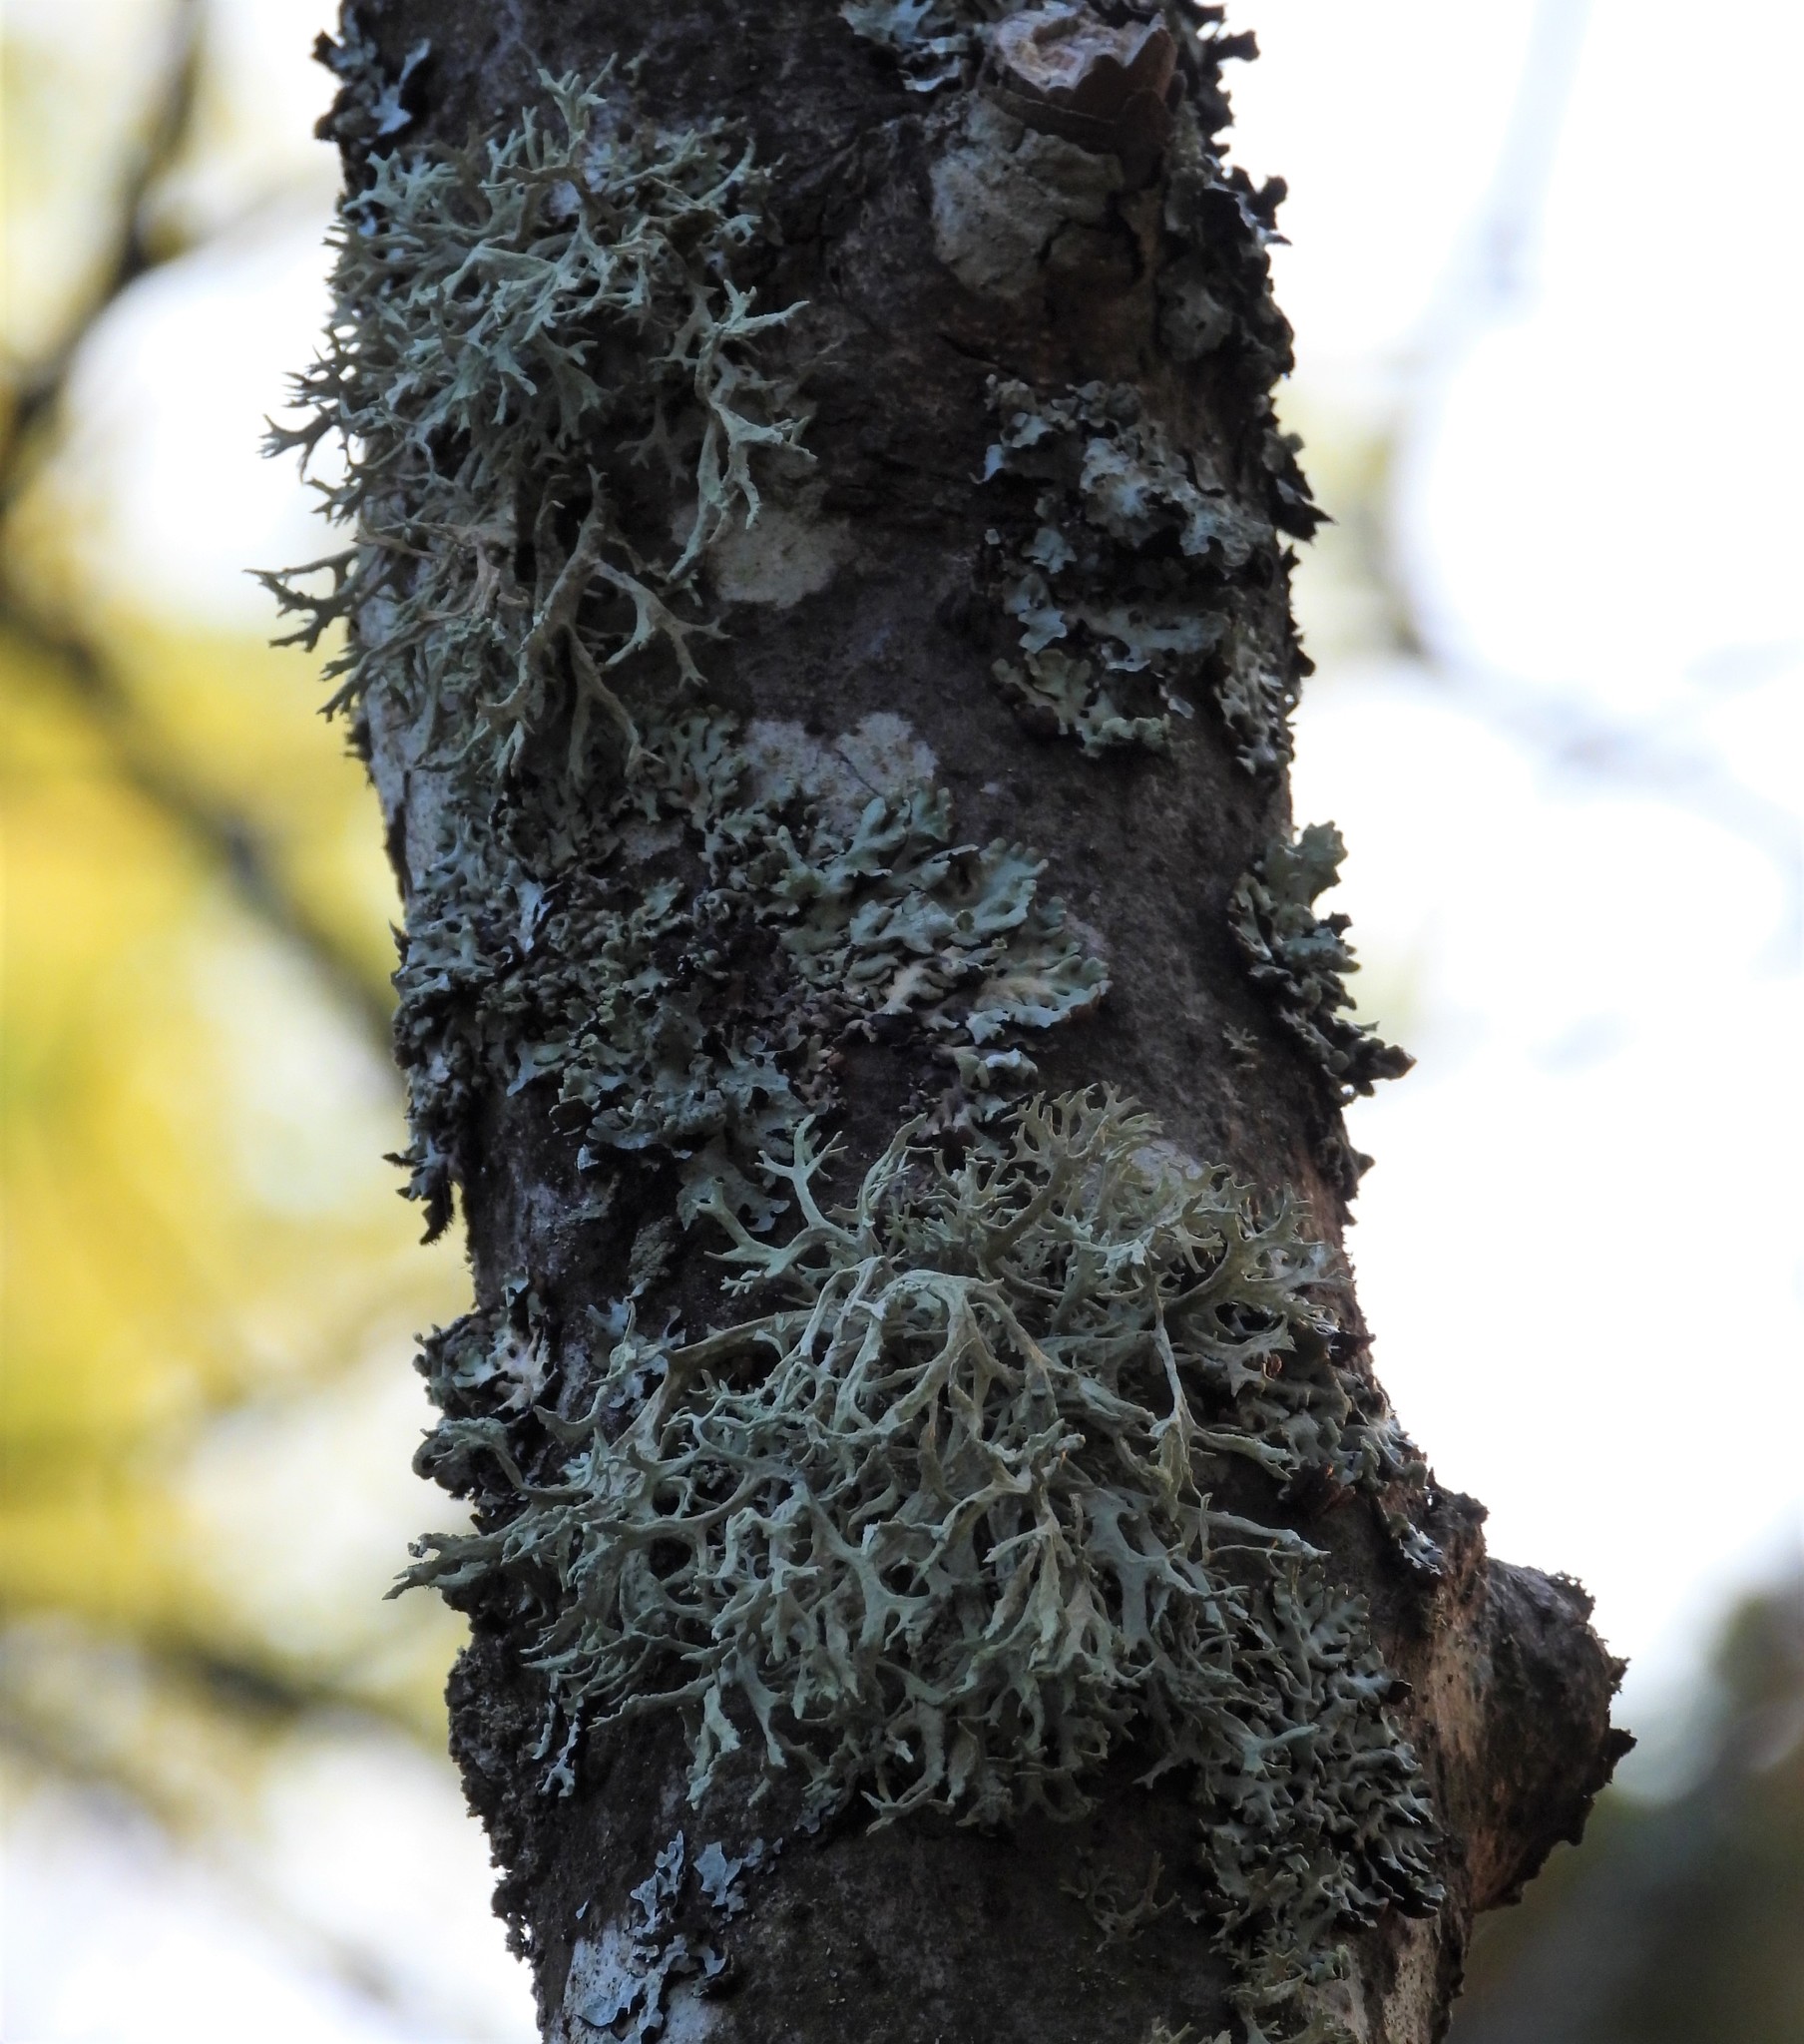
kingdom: Fungi
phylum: Ascomycota
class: Lecanoromycetes
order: Lecanorales
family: Parmeliaceae
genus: Evernia
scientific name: Evernia prunastri
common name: Oak moss
